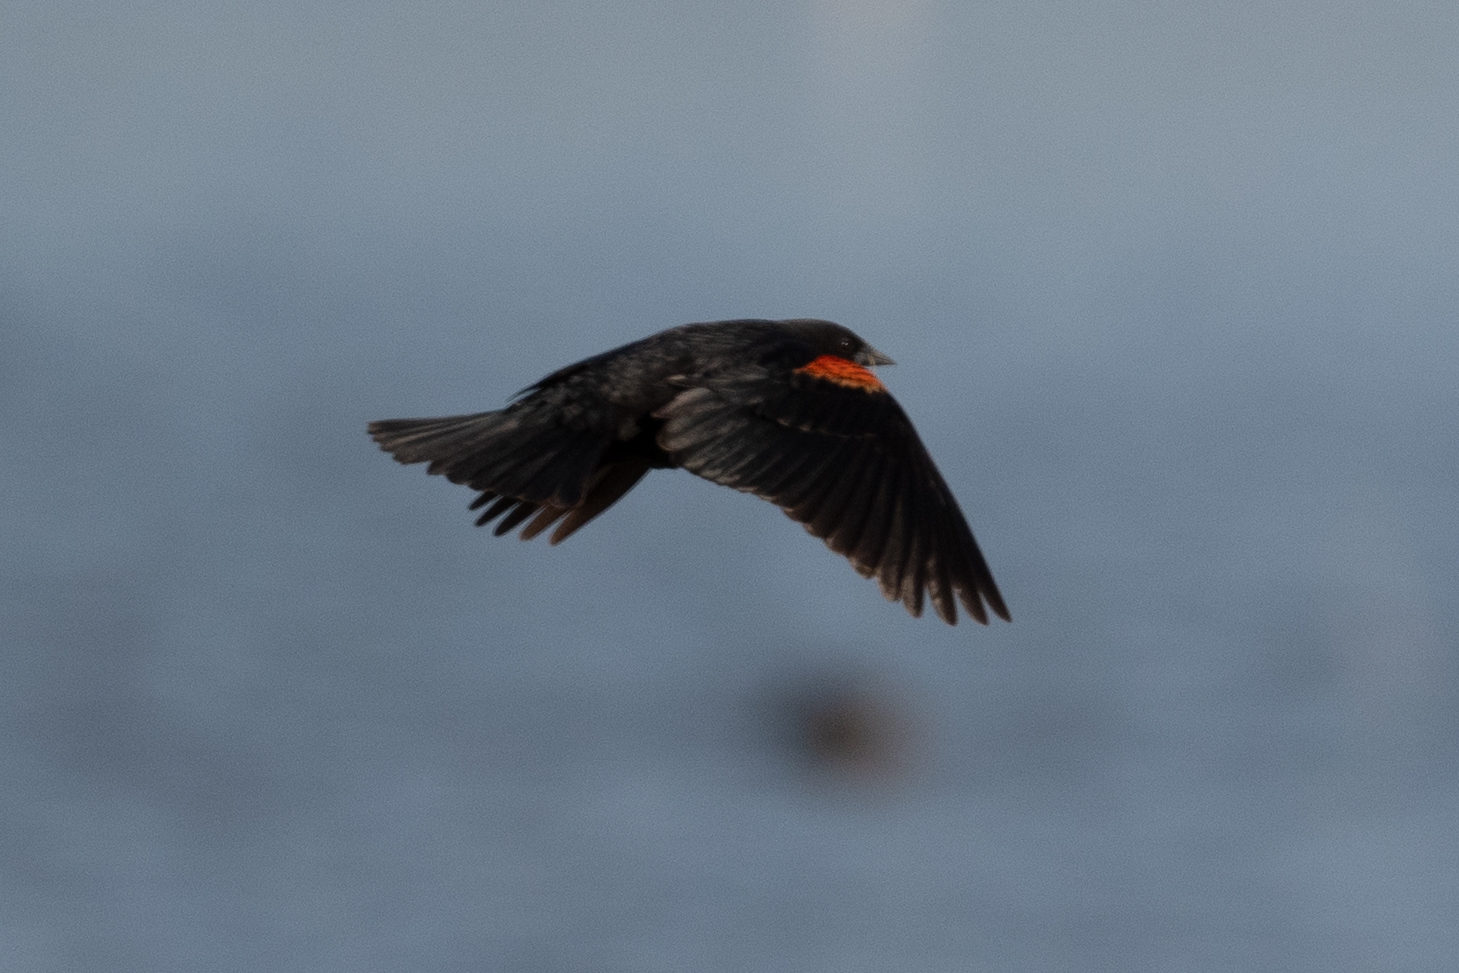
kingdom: Animalia
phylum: Chordata
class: Aves
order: Passeriformes
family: Icteridae
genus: Agelaius
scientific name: Agelaius phoeniceus
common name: Red-winged blackbird
